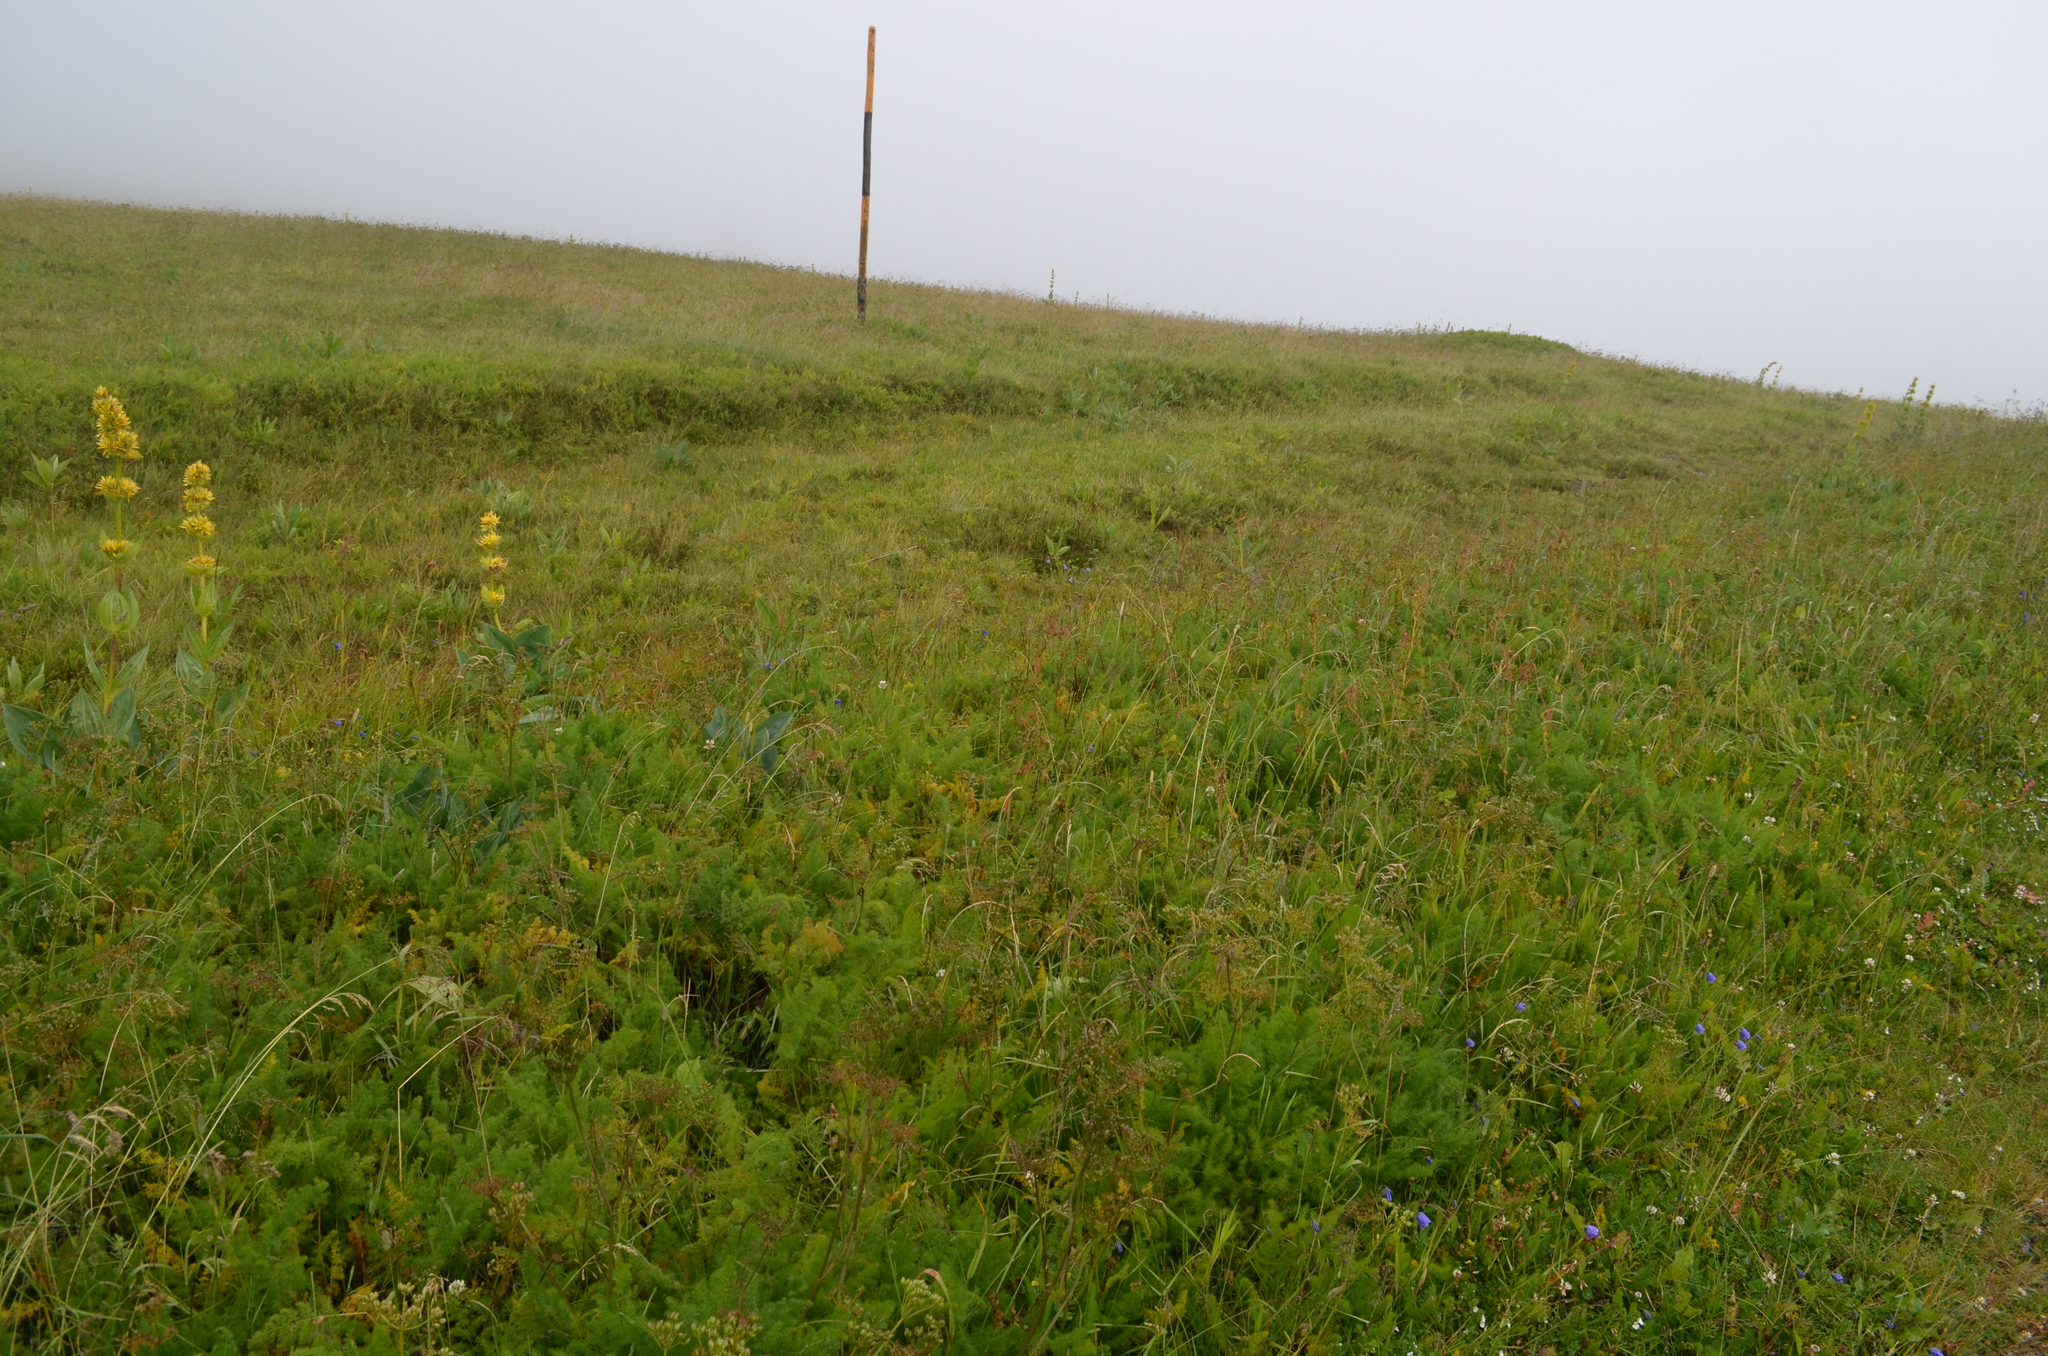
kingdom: Plantae
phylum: Tracheophyta
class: Magnoliopsida
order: Apiales
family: Apiaceae
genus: Meum
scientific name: Meum athamanticum
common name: Spignel
